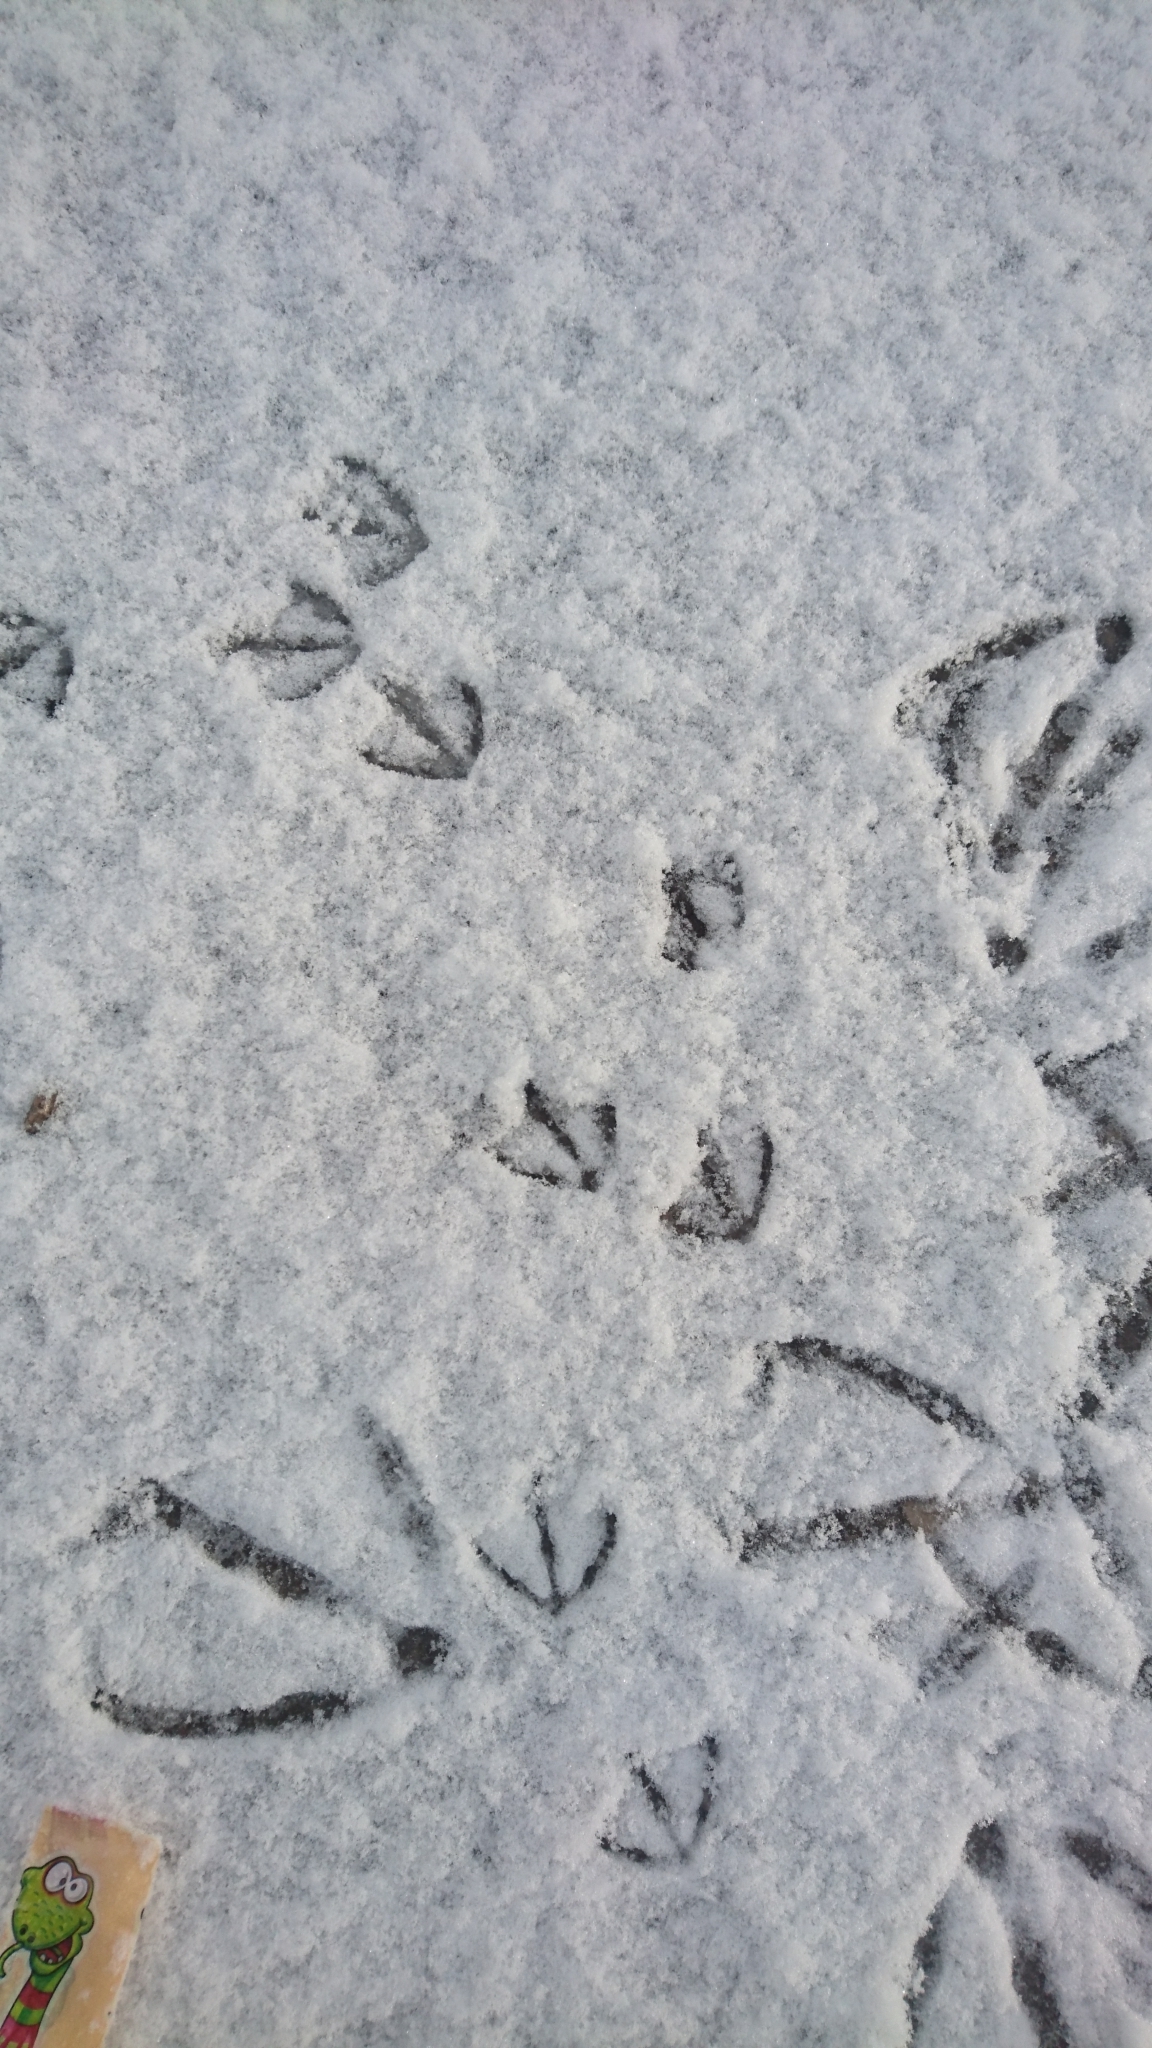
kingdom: Animalia
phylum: Chordata
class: Aves
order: Anseriformes
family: Anatidae
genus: Anas
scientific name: Anas platyrhynchos
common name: Mallard
